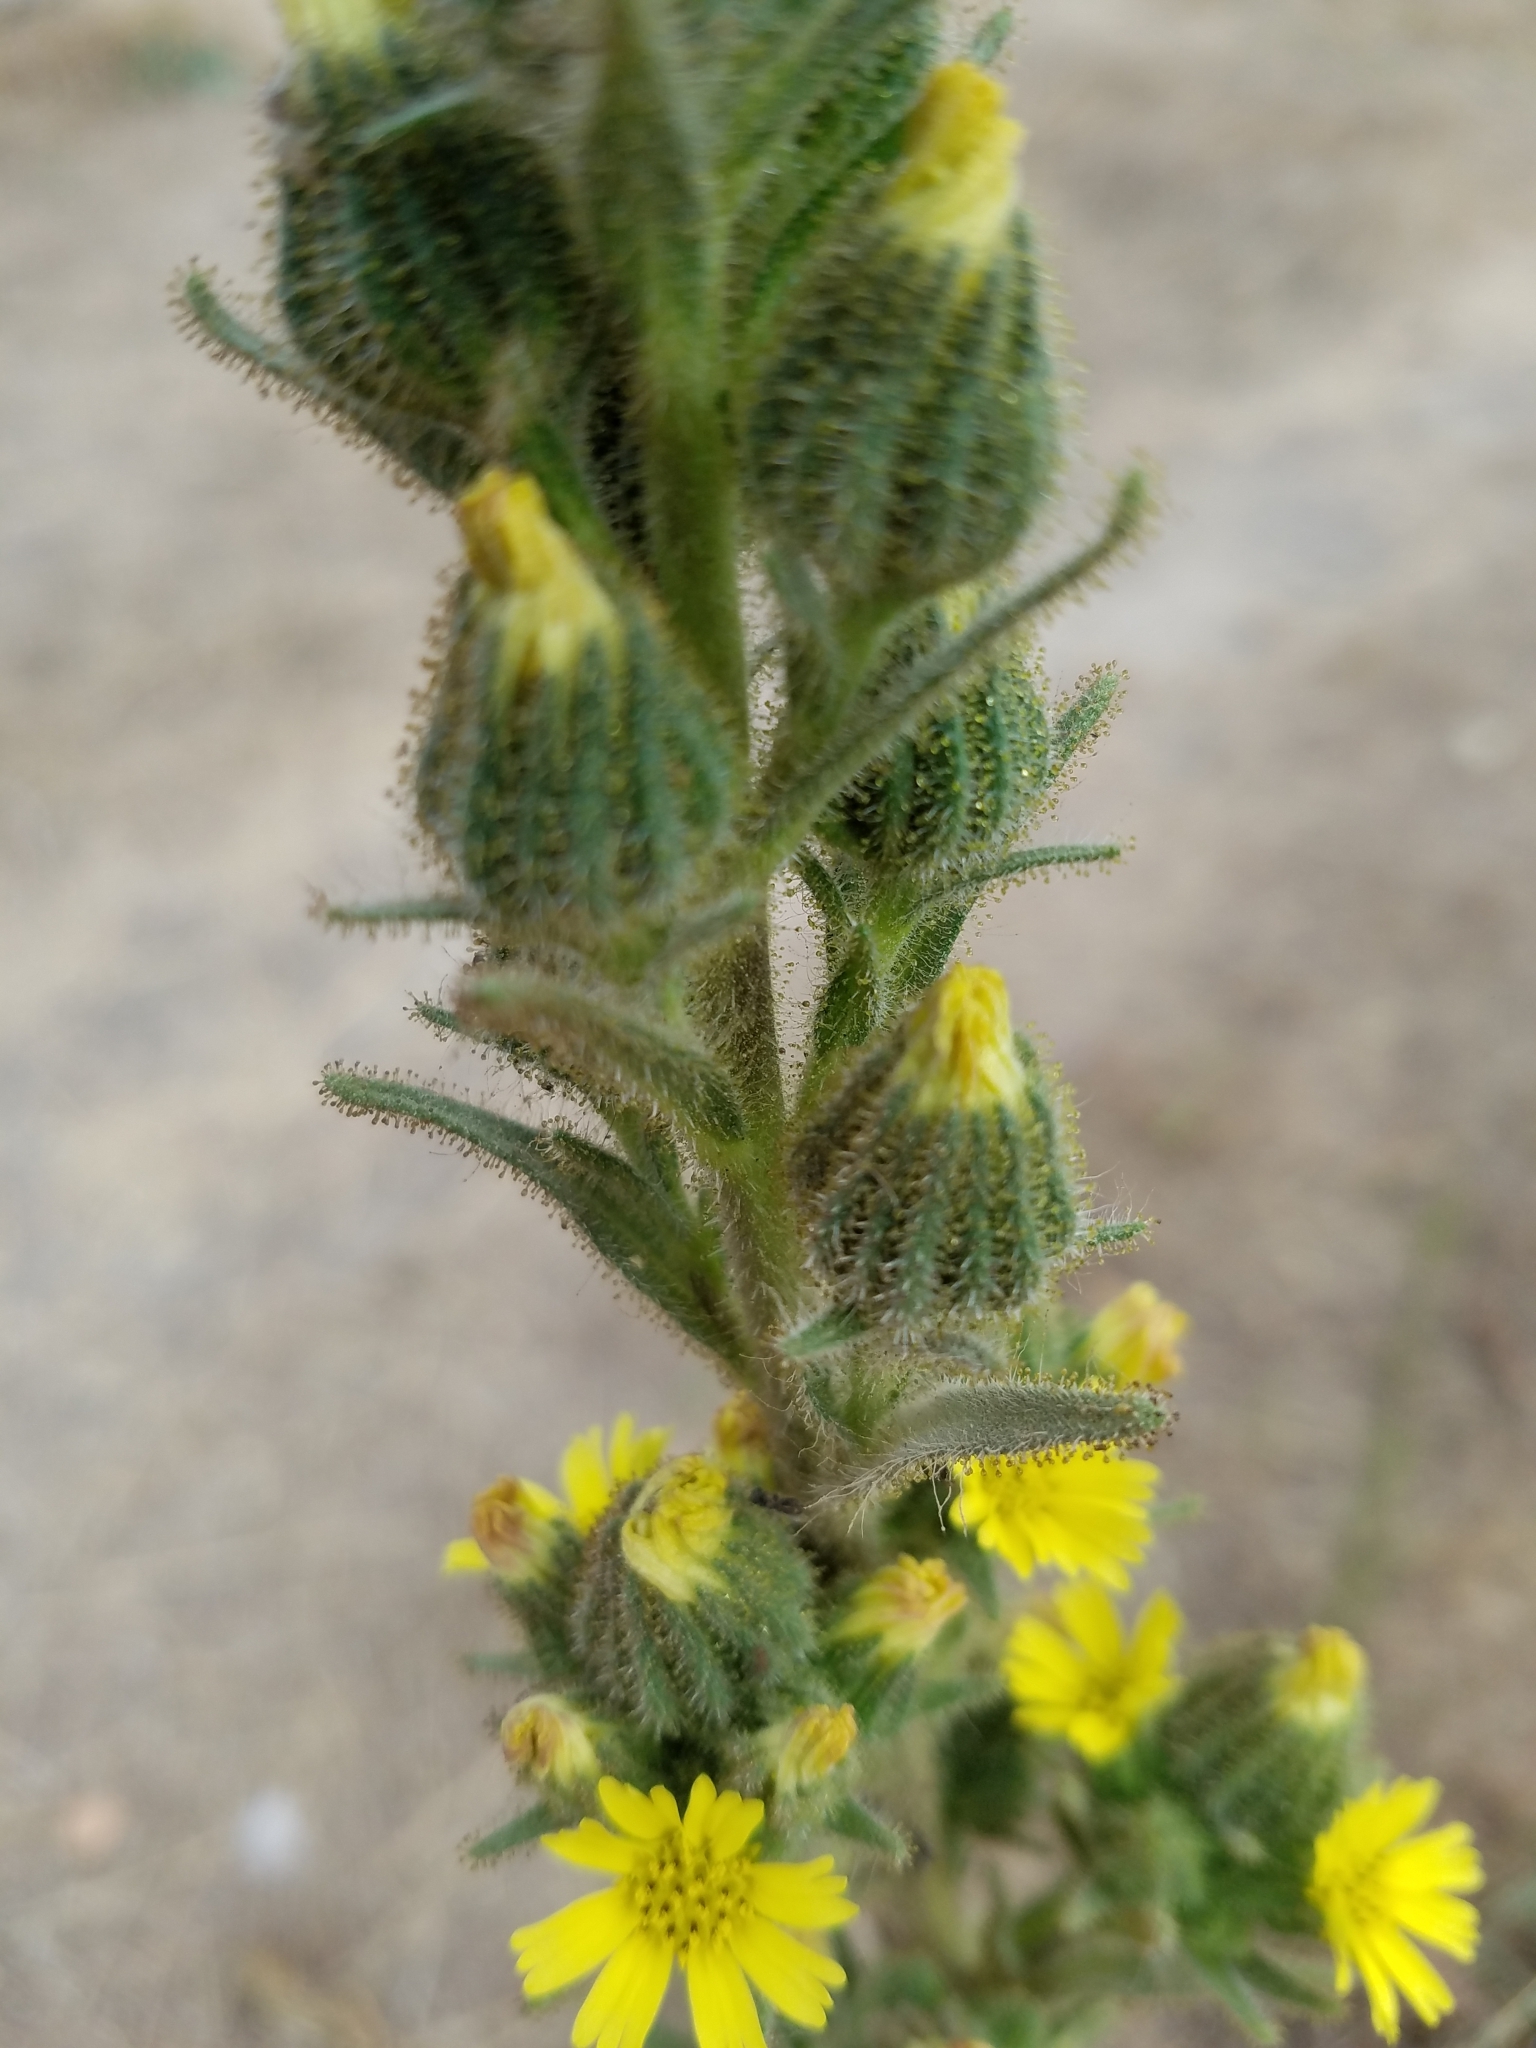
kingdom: Plantae
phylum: Tracheophyta
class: Magnoliopsida
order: Asterales
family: Asteraceae
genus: Madia
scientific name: Madia sativa
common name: Coast tarweed
